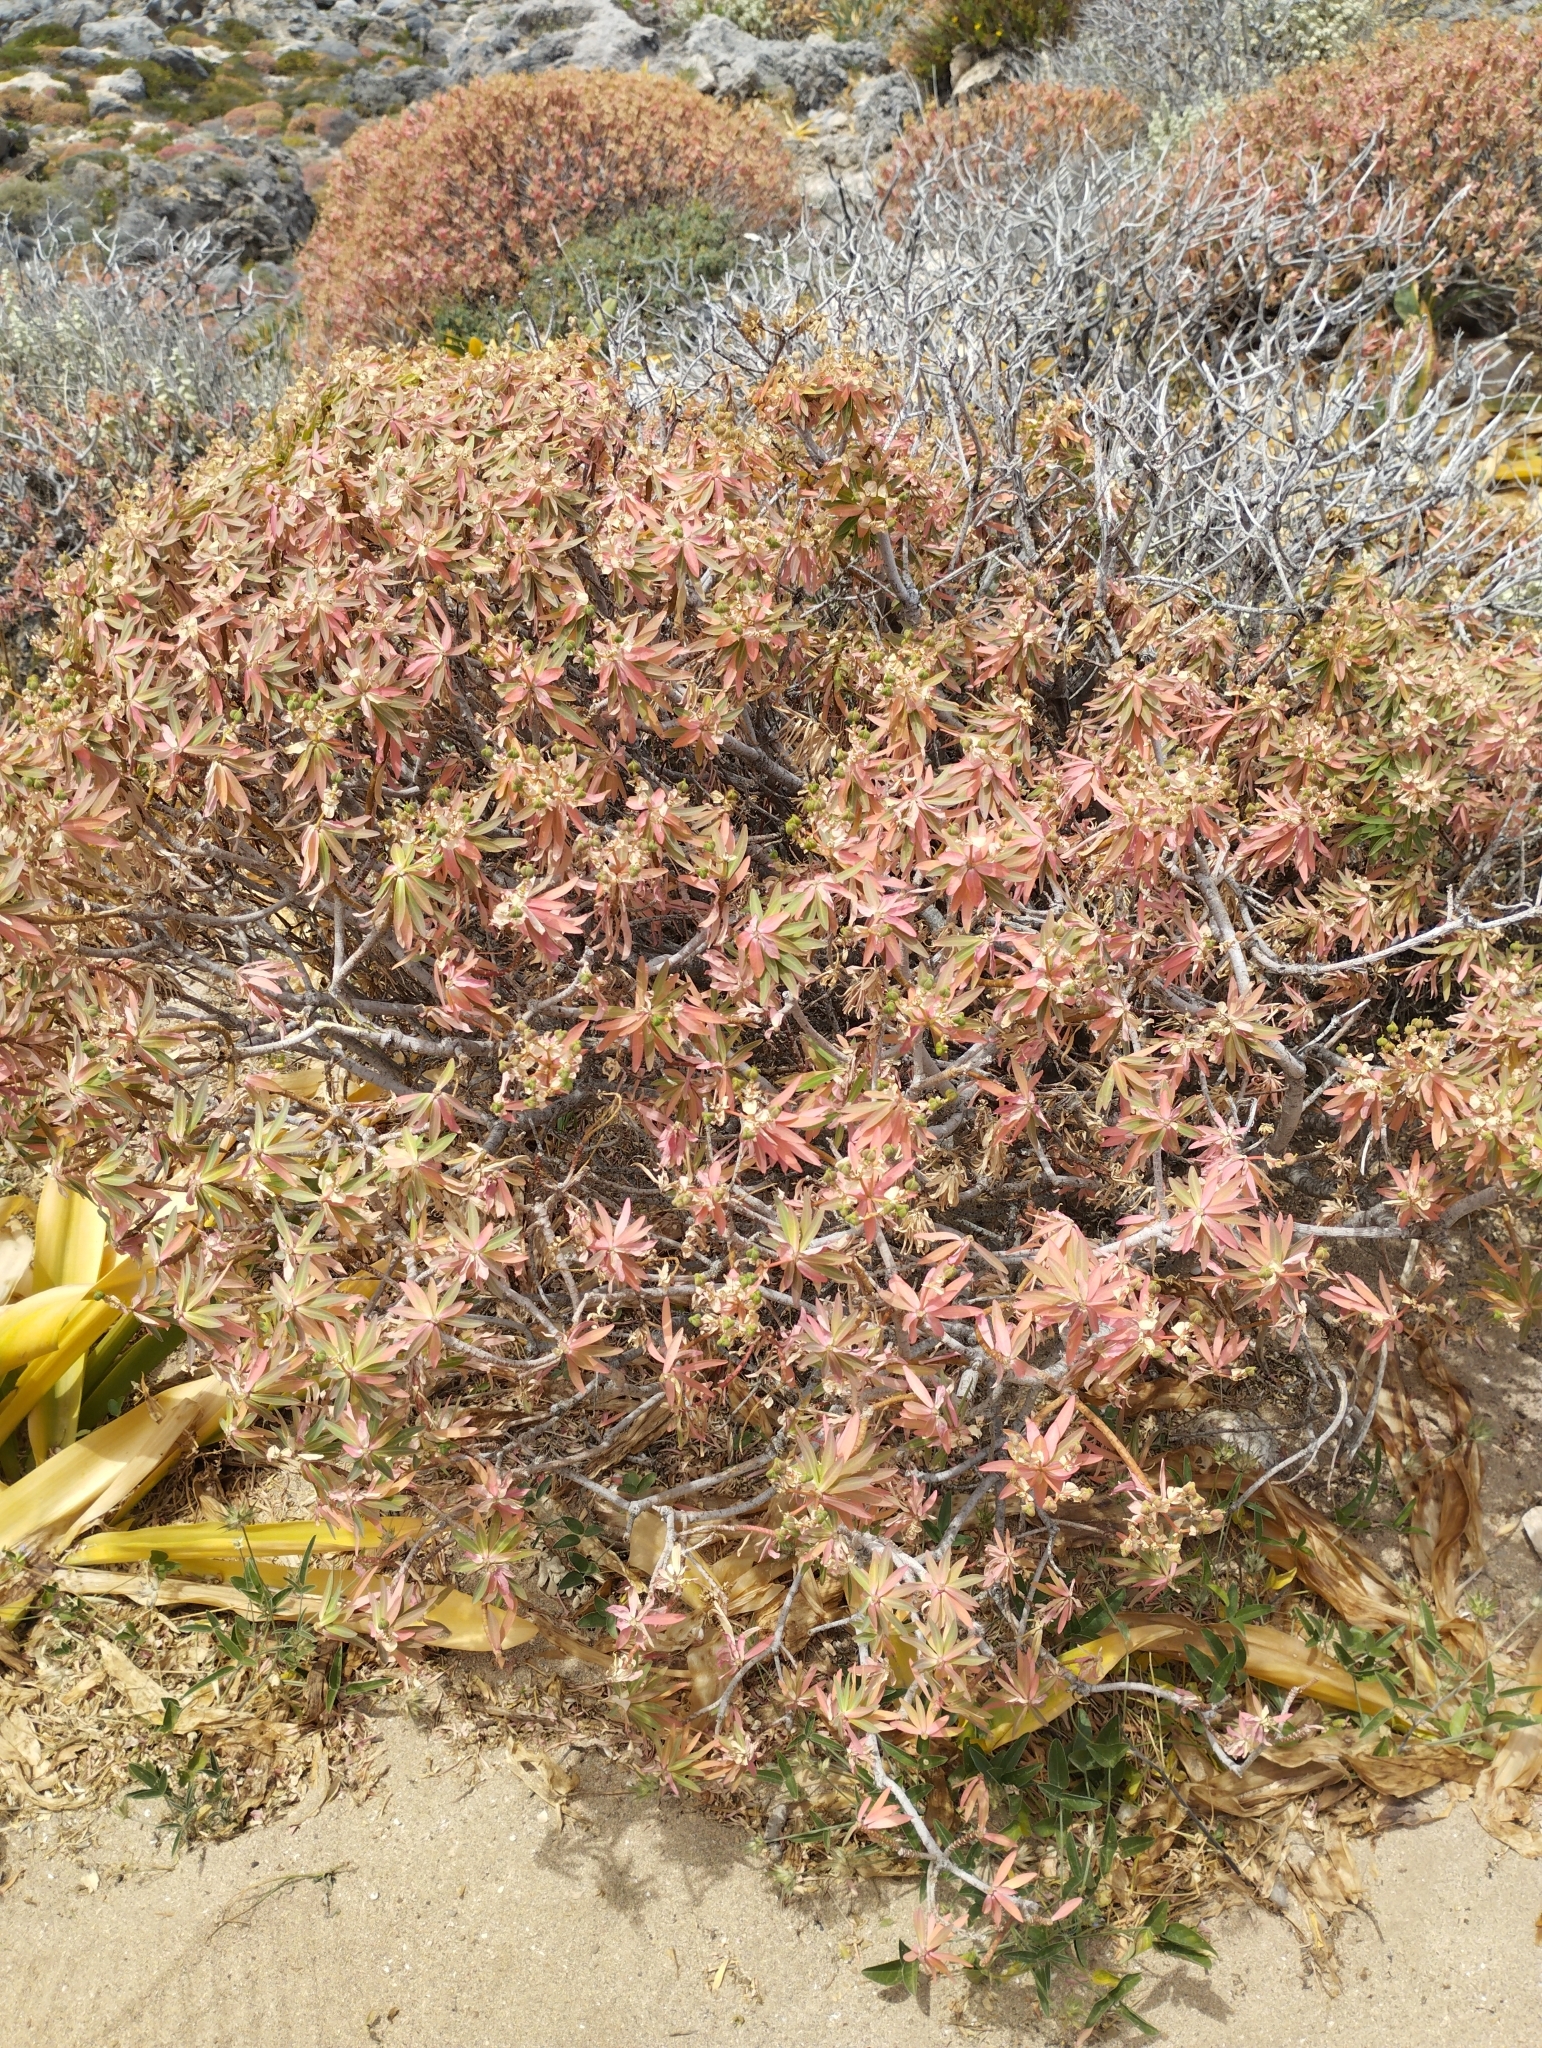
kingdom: Plantae
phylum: Tracheophyta
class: Magnoliopsida
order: Malpighiales
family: Euphorbiaceae
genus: Euphorbia
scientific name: Euphorbia dendroides
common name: Tree spurge
